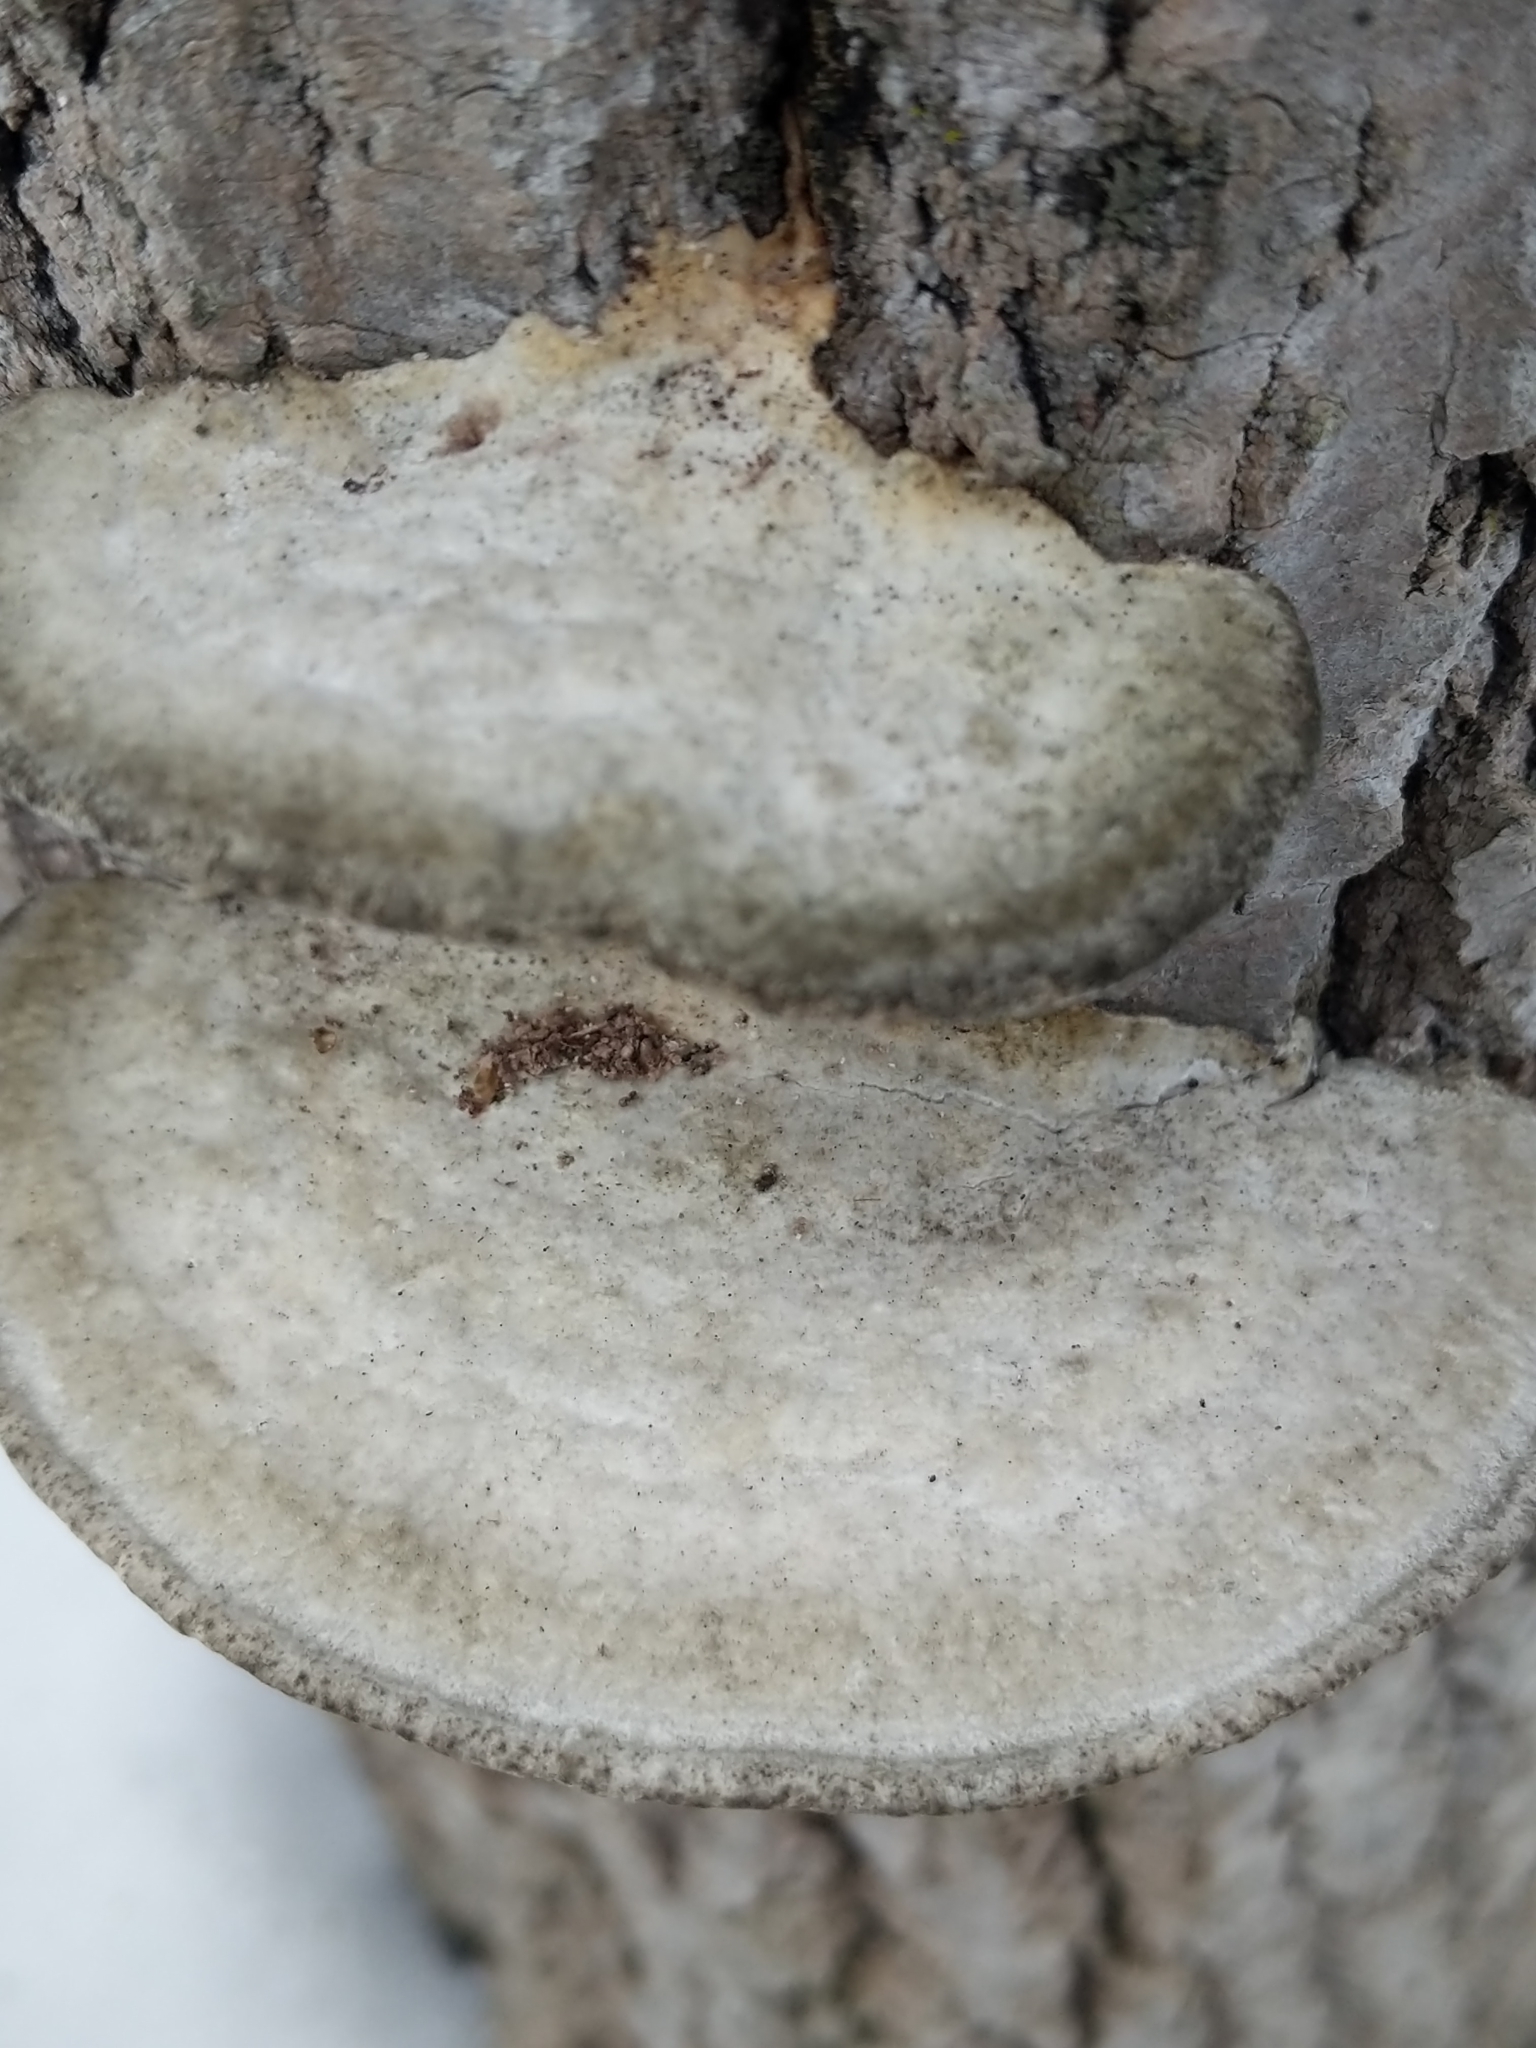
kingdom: Fungi
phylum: Basidiomycota
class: Agaricomycetes
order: Polyporales
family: Polyporaceae
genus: Trametes
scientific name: Trametes gibbosa
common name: Lumpy bracket
